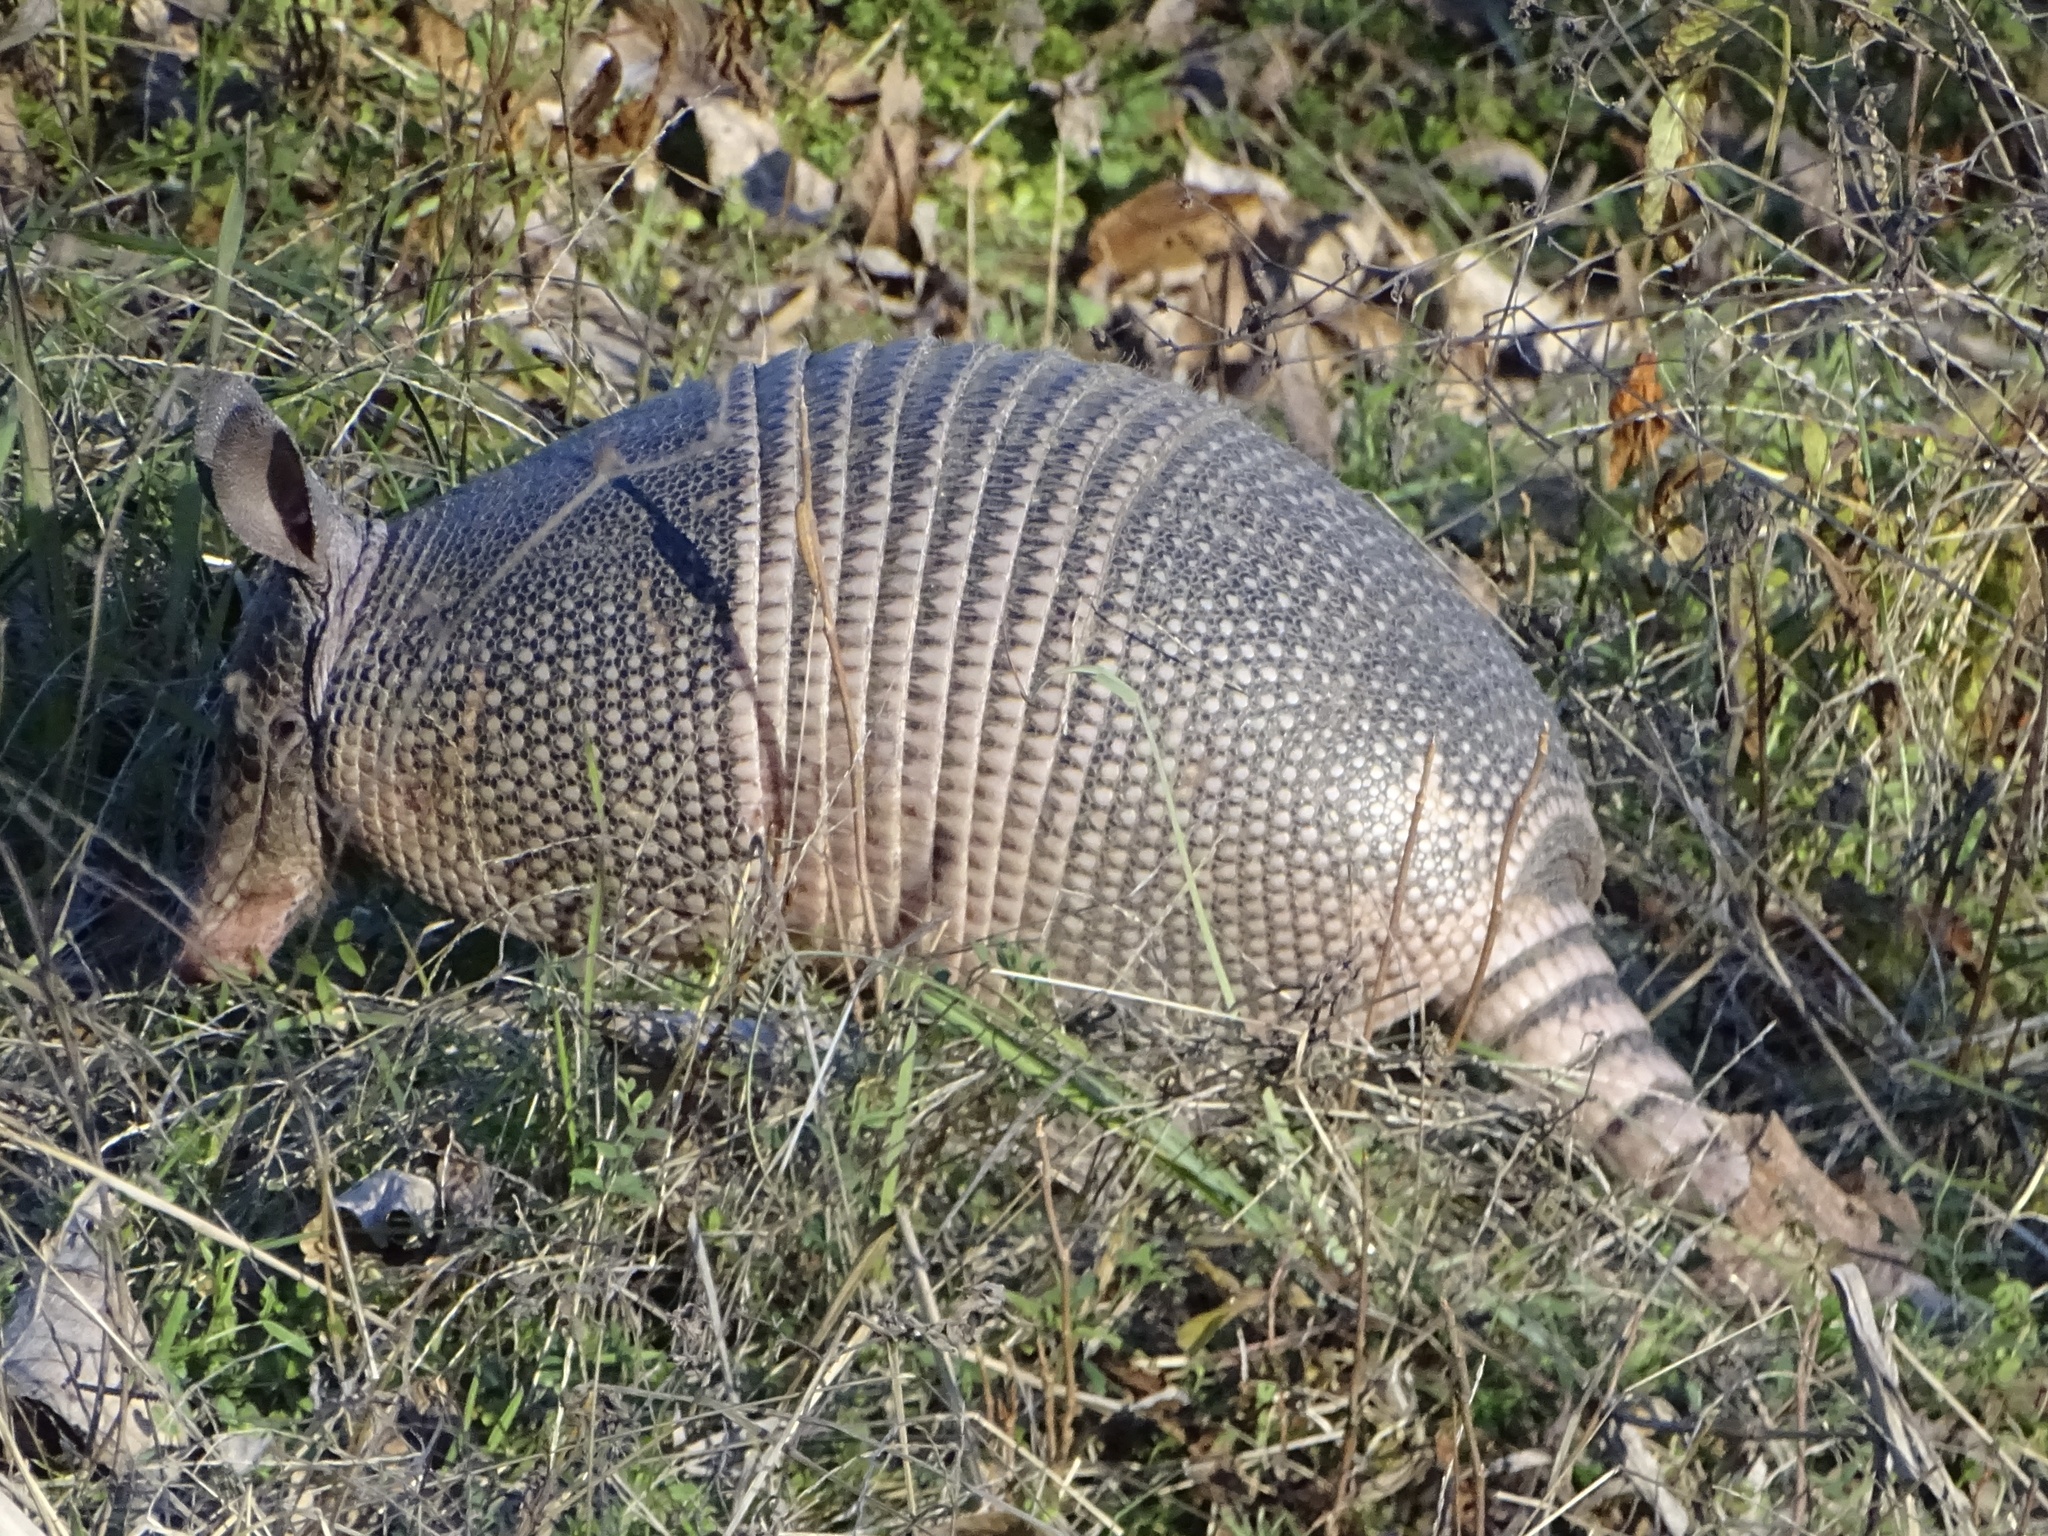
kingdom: Animalia
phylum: Chordata
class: Mammalia
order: Cingulata
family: Dasypodidae
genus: Dasypus
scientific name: Dasypus novemcinctus
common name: Nine-banded armadillo
